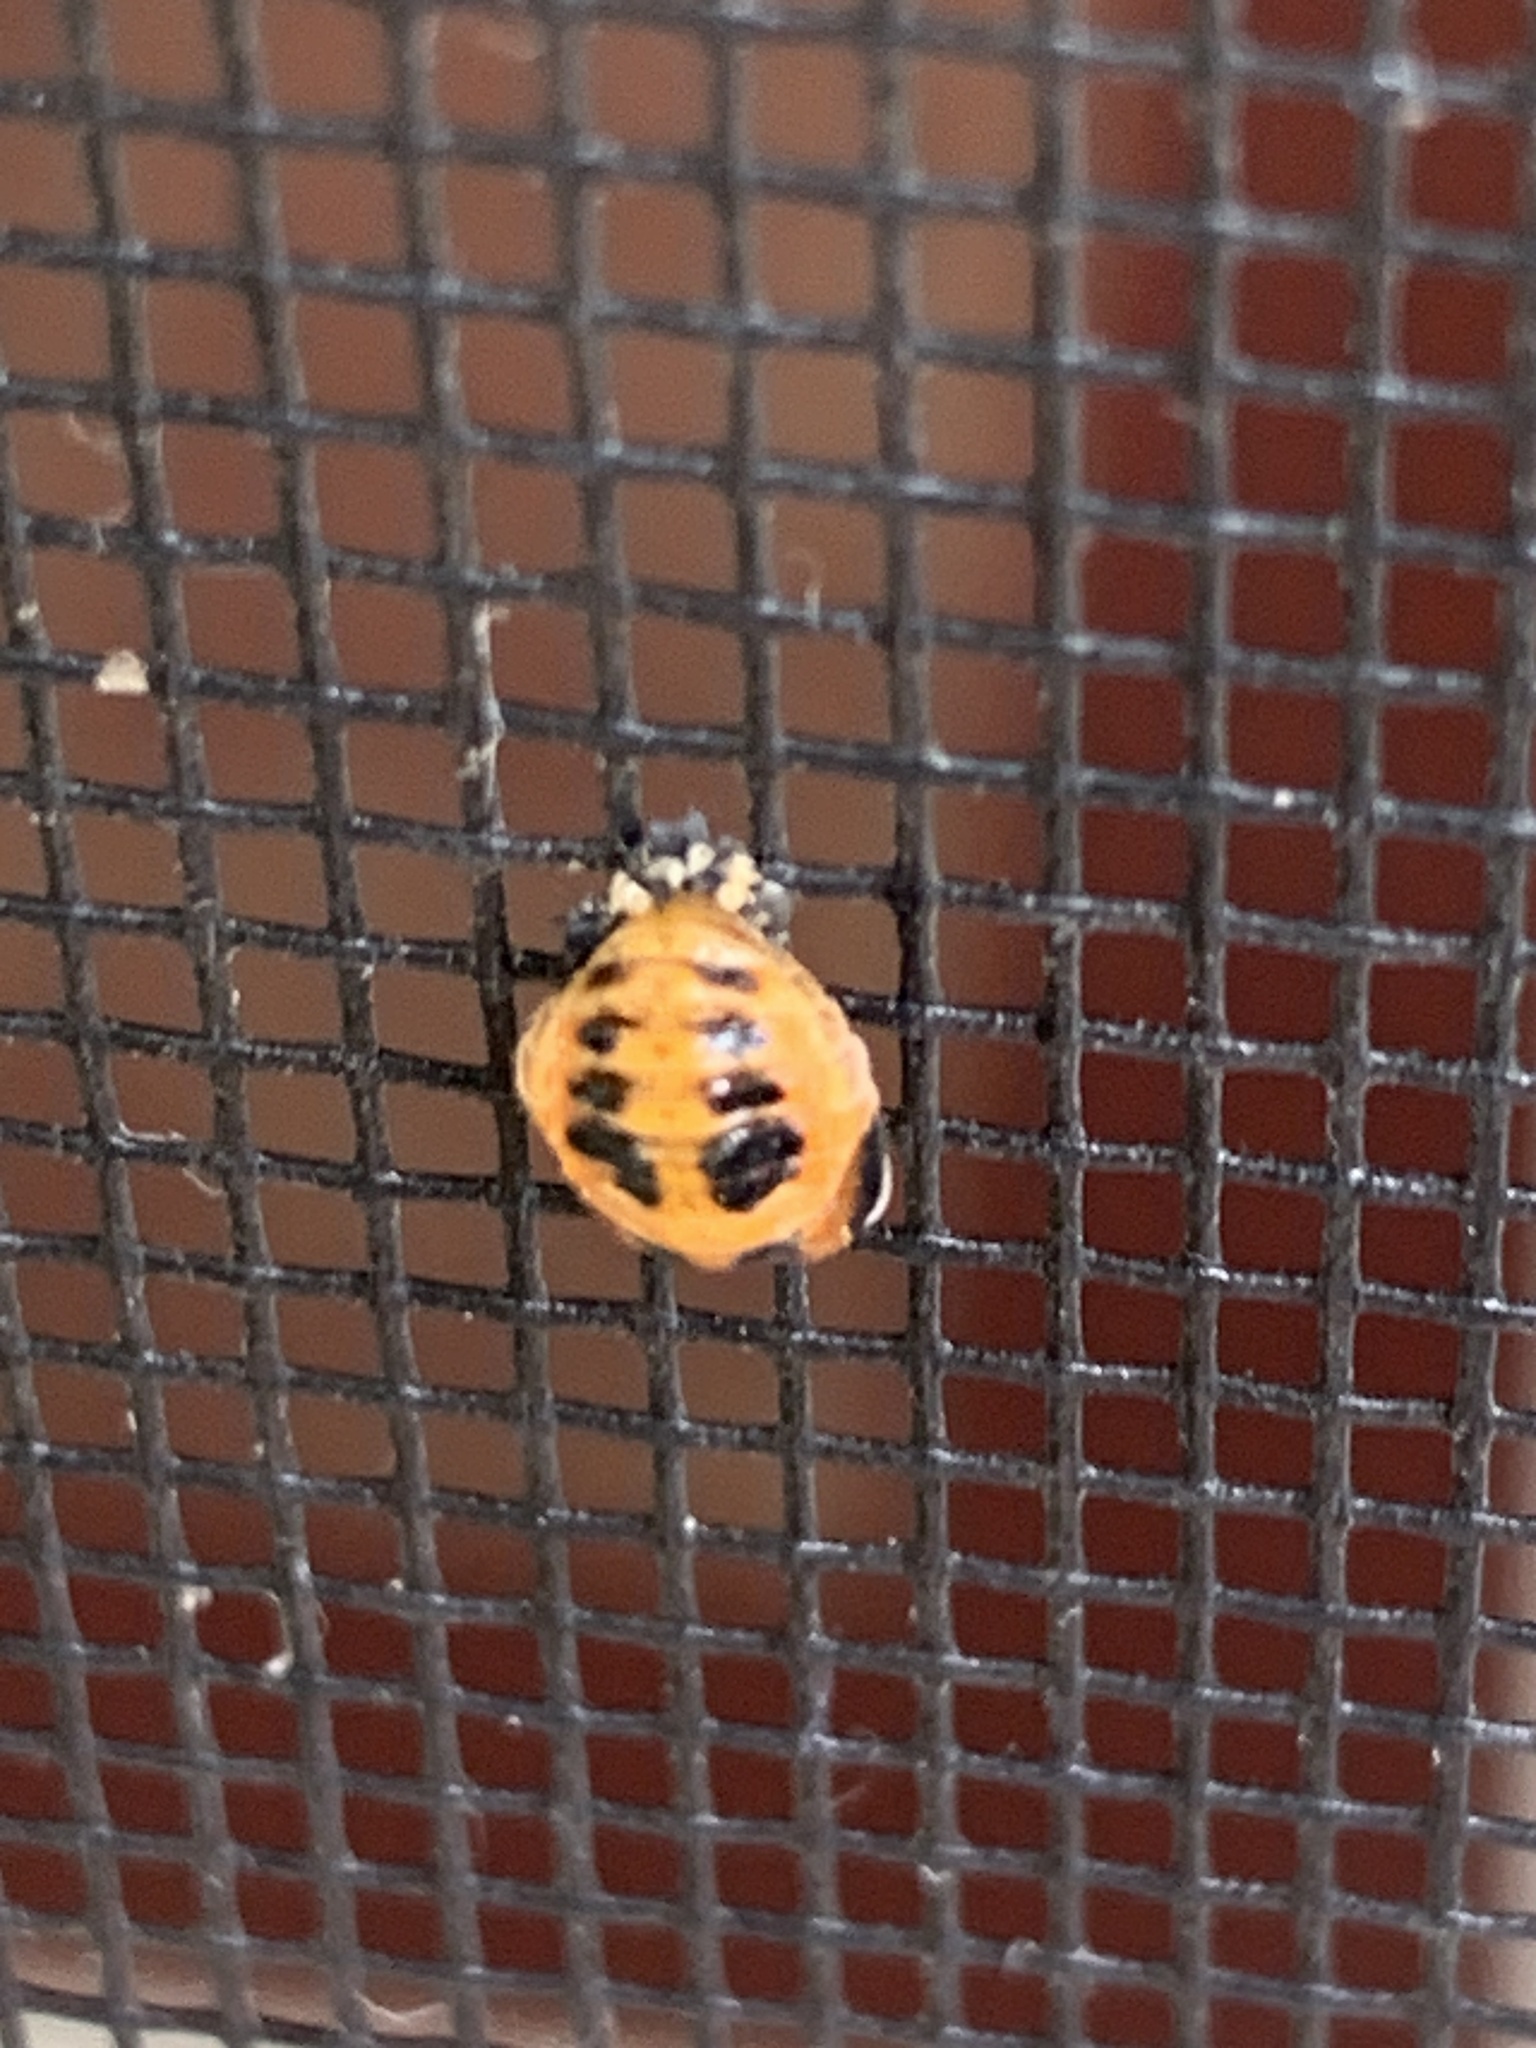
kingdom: Animalia
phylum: Arthropoda
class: Insecta
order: Coleoptera
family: Coccinellidae
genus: Harmonia
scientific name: Harmonia axyridis
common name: Harlequin ladybird
